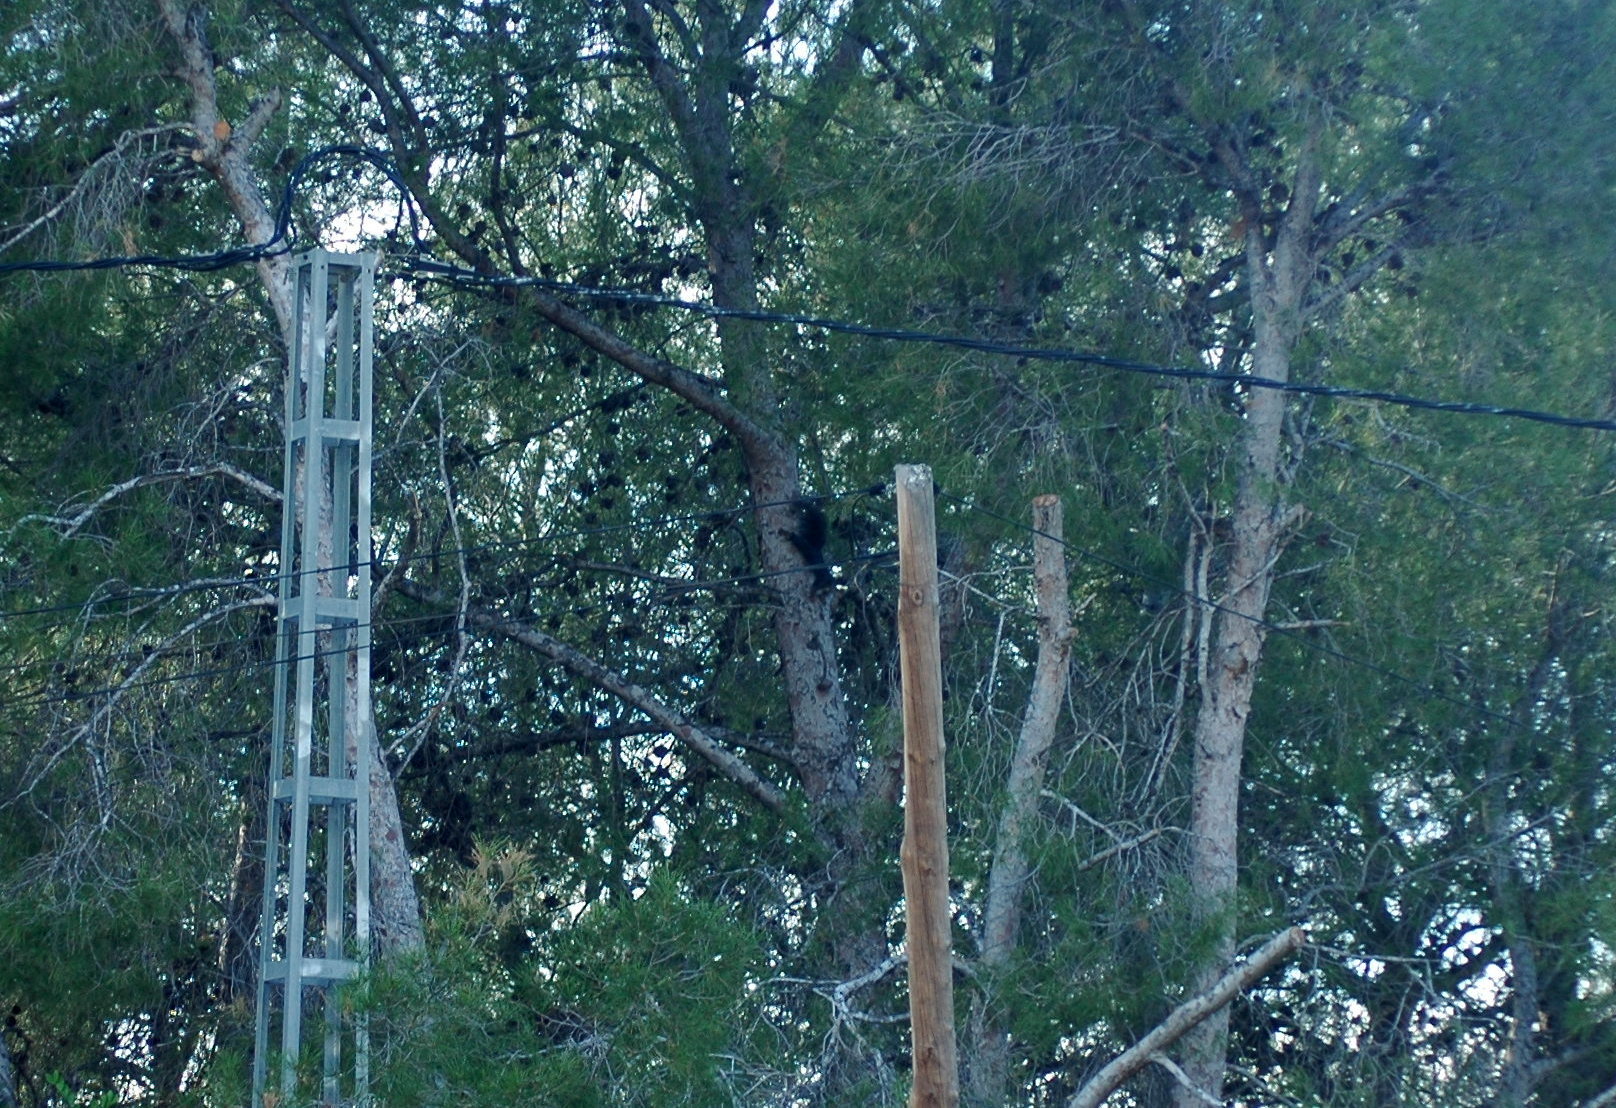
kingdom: Animalia
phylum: Chordata
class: Mammalia
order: Rodentia
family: Sciuridae
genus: Sciurus
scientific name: Sciurus vulgaris
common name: Eurasian red squirrel
